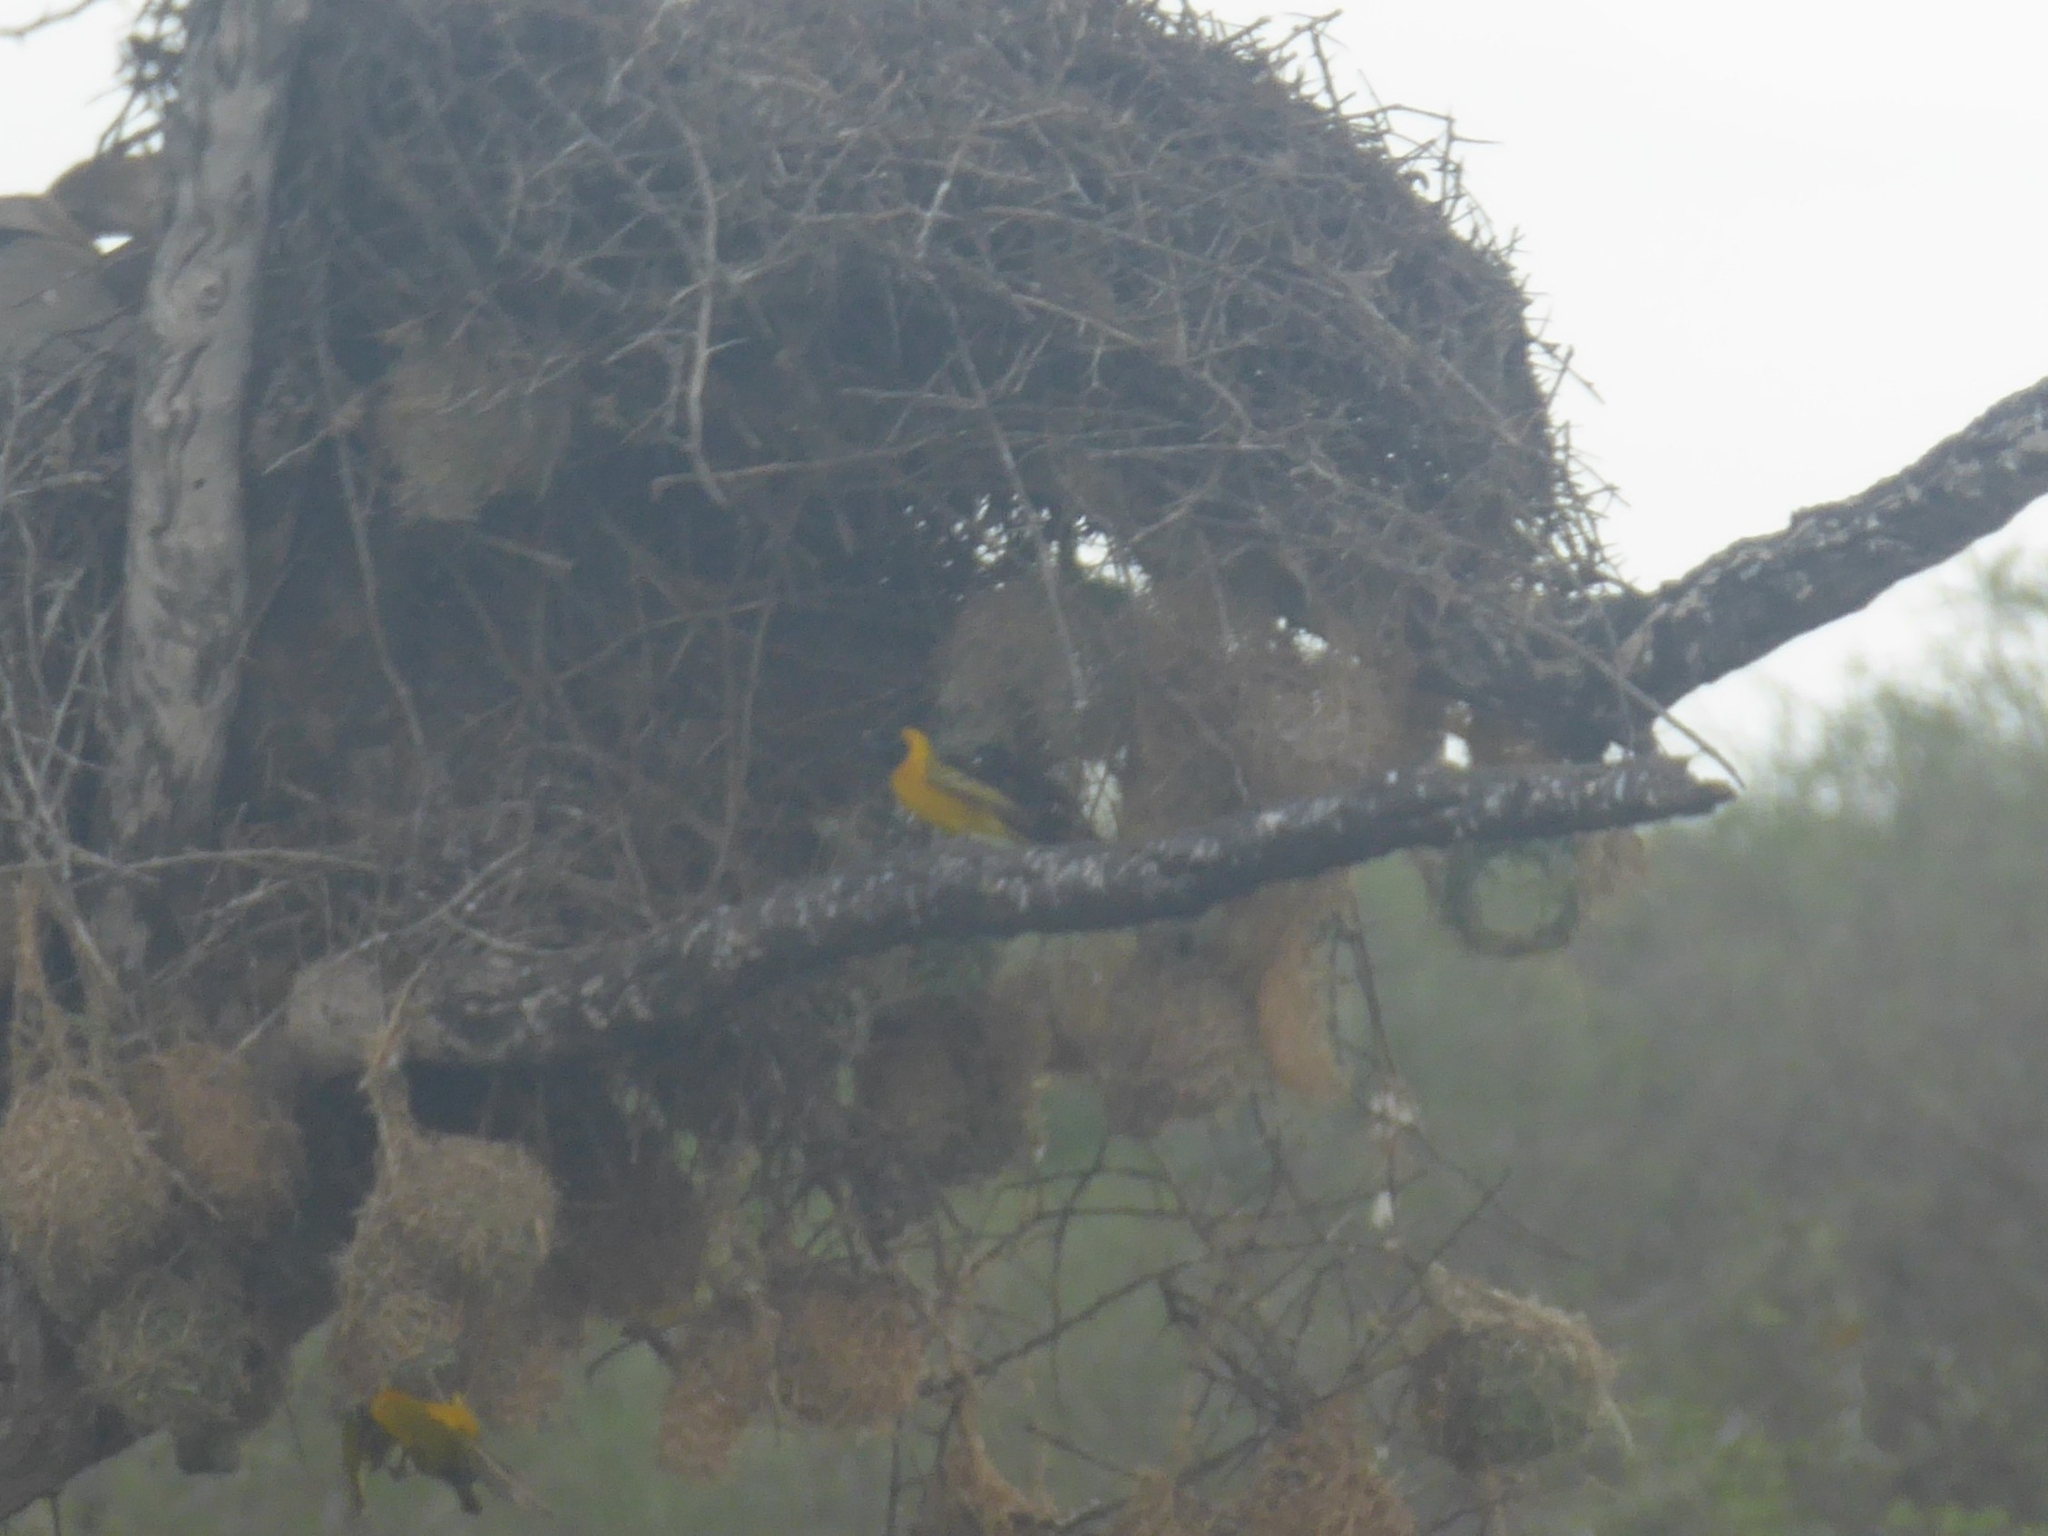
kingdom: Animalia
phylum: Chordata
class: Aves
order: Passeriformes
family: Ploceidae
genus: Ploceus
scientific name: Ploceus intermedius
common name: Lesser masked weaver
